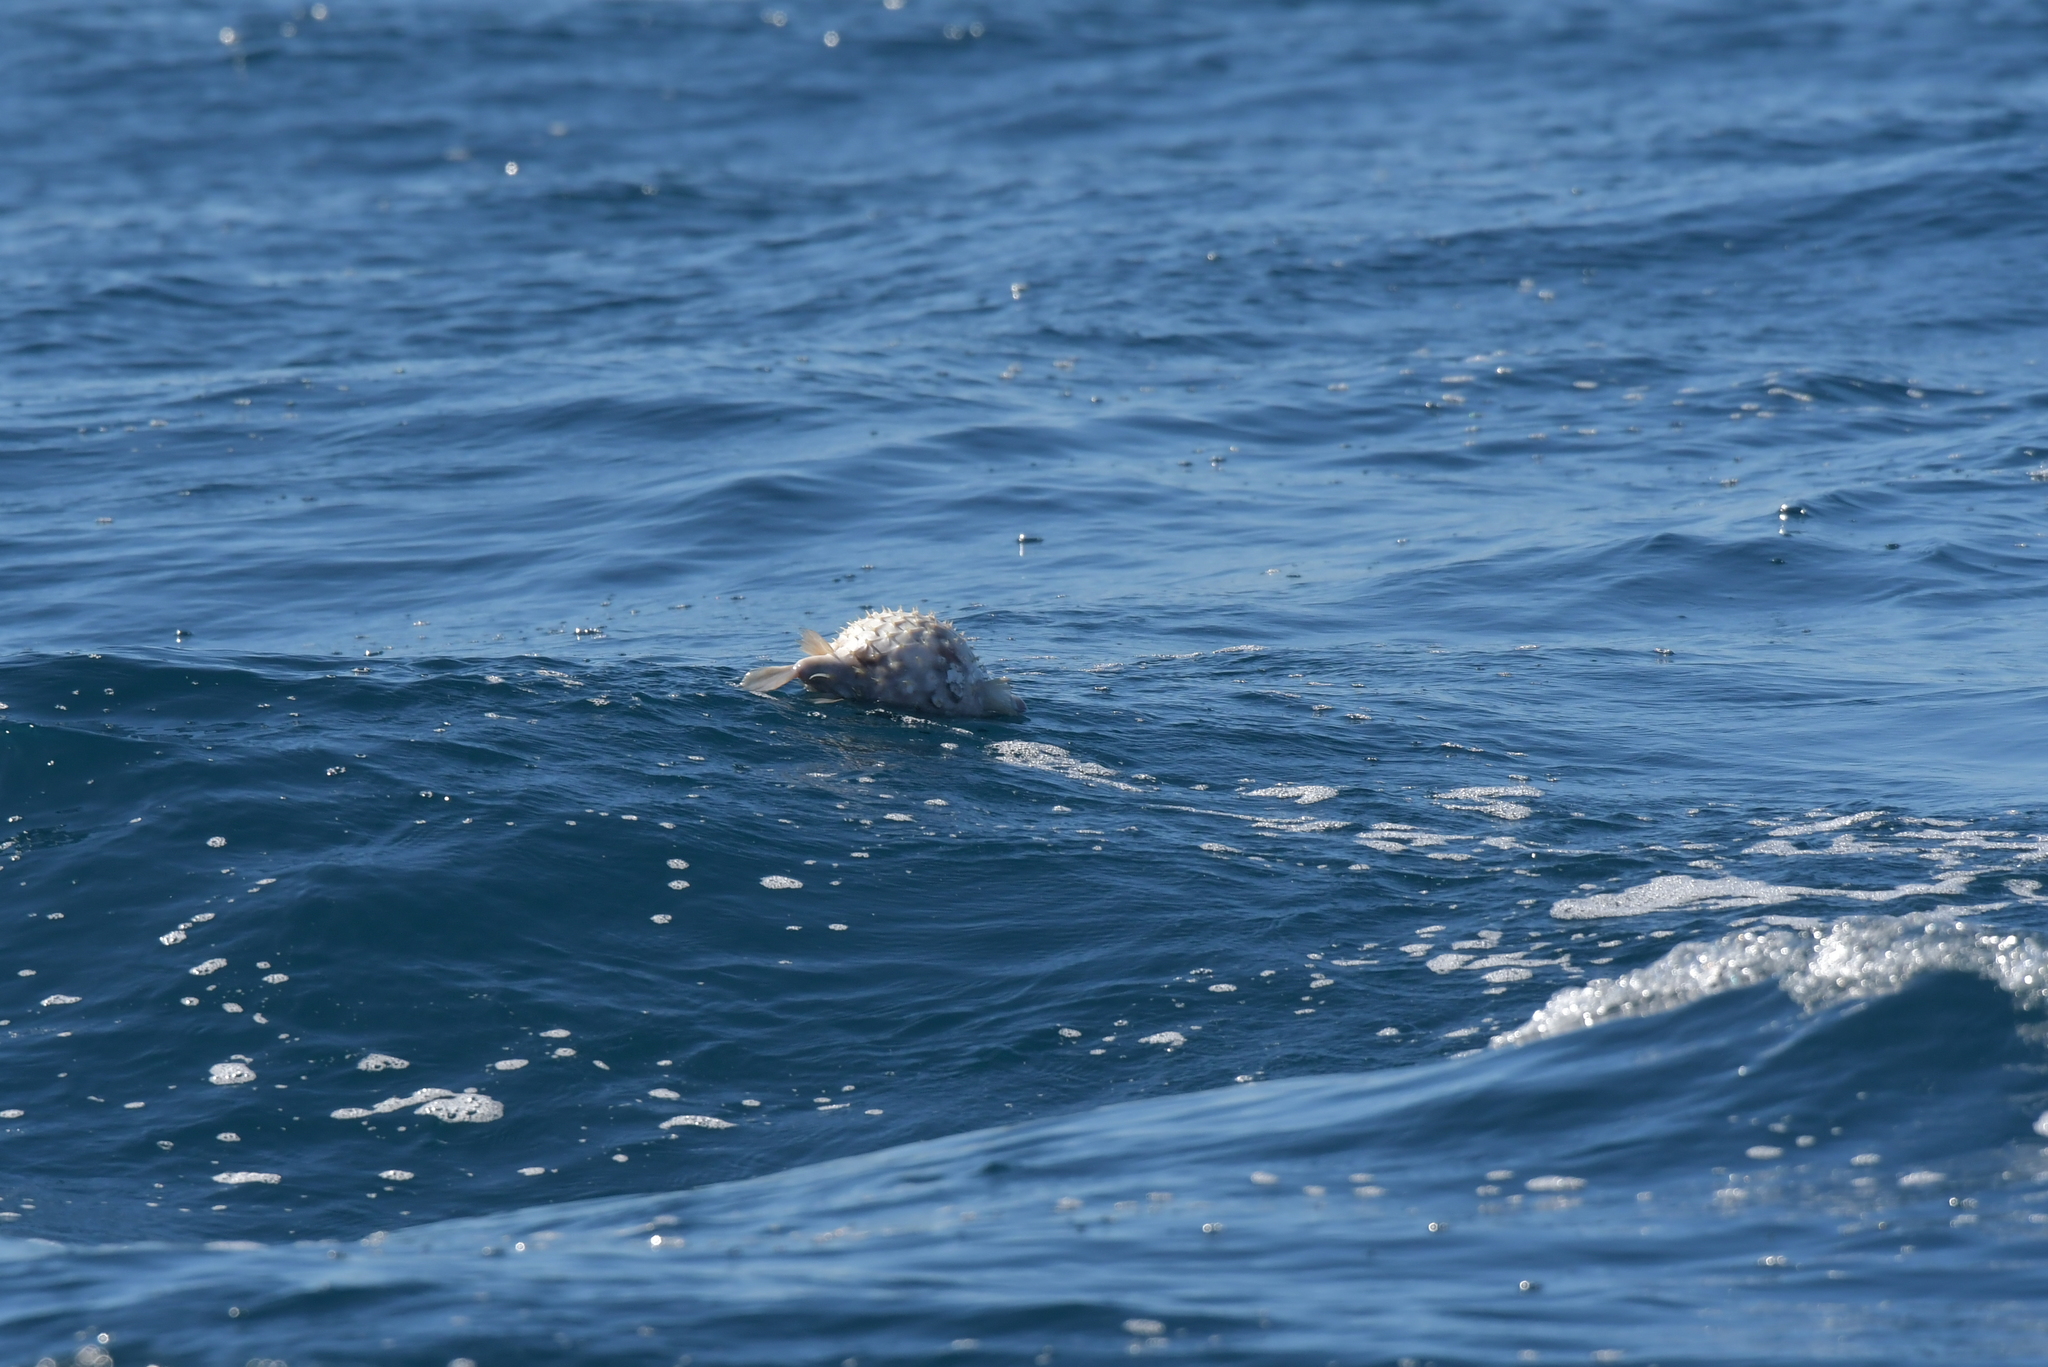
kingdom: Animalia
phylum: Chordata
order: Tetraodontiformes
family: Diodontidae
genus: Allomycterus
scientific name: Allomycterus pilatus
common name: No common name
